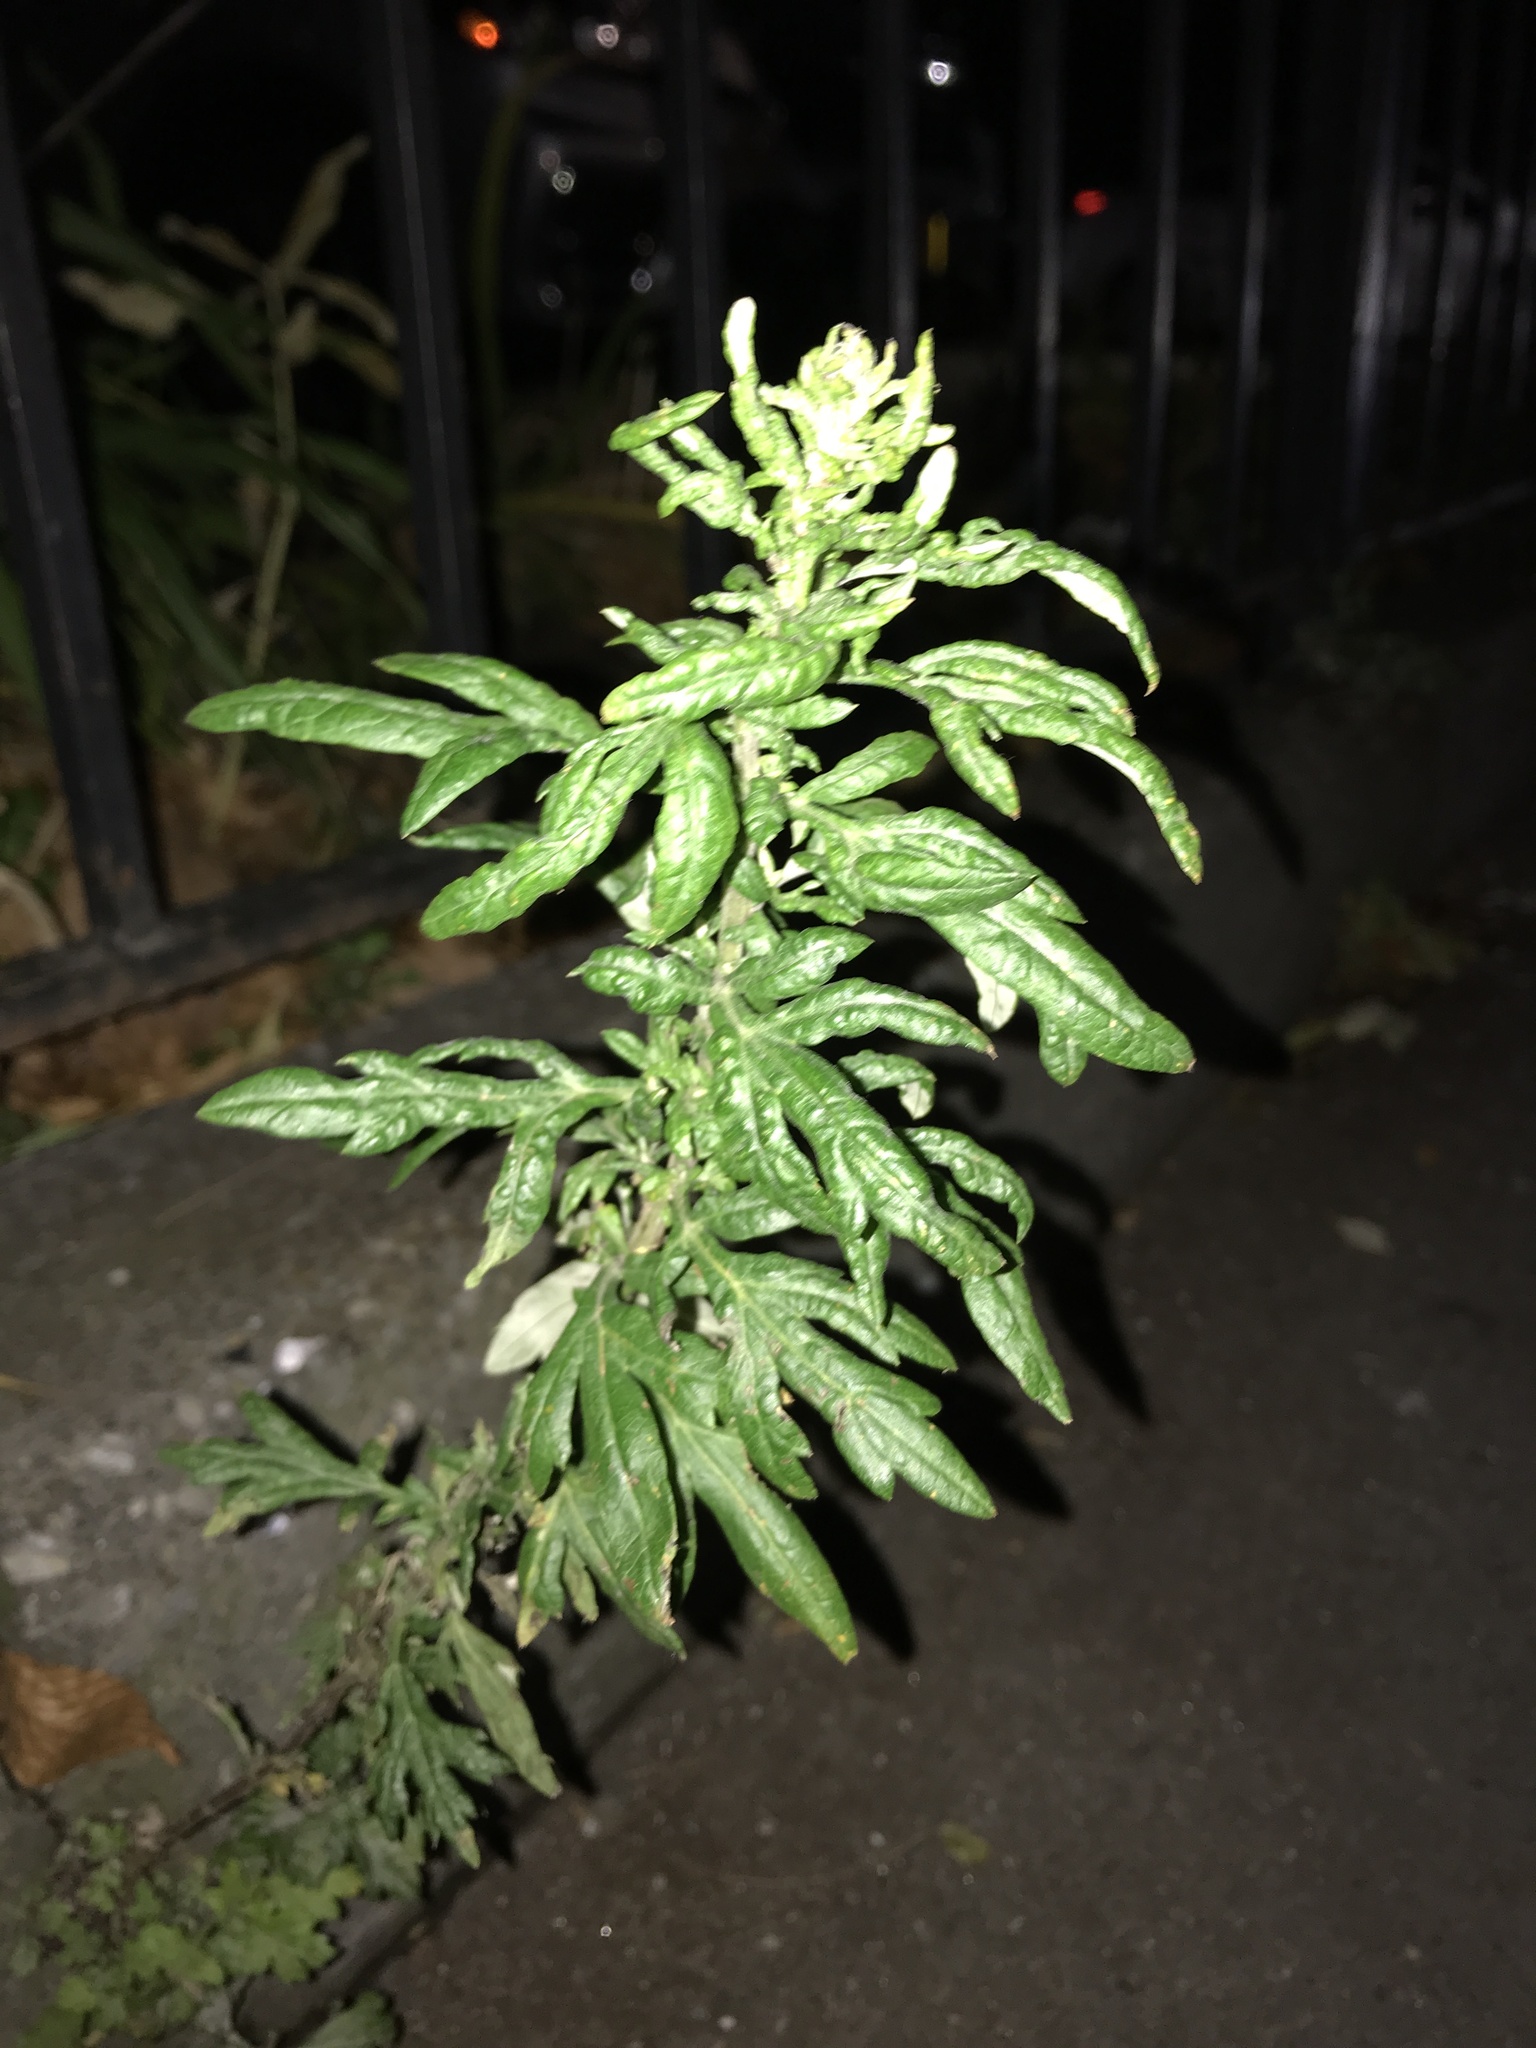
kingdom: Plantae
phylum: Tracheophyta
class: Magnoliopsida
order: Asterales
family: Asteraceae
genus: Artemisia
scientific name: Artemisia vulgaris
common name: Mugwort
